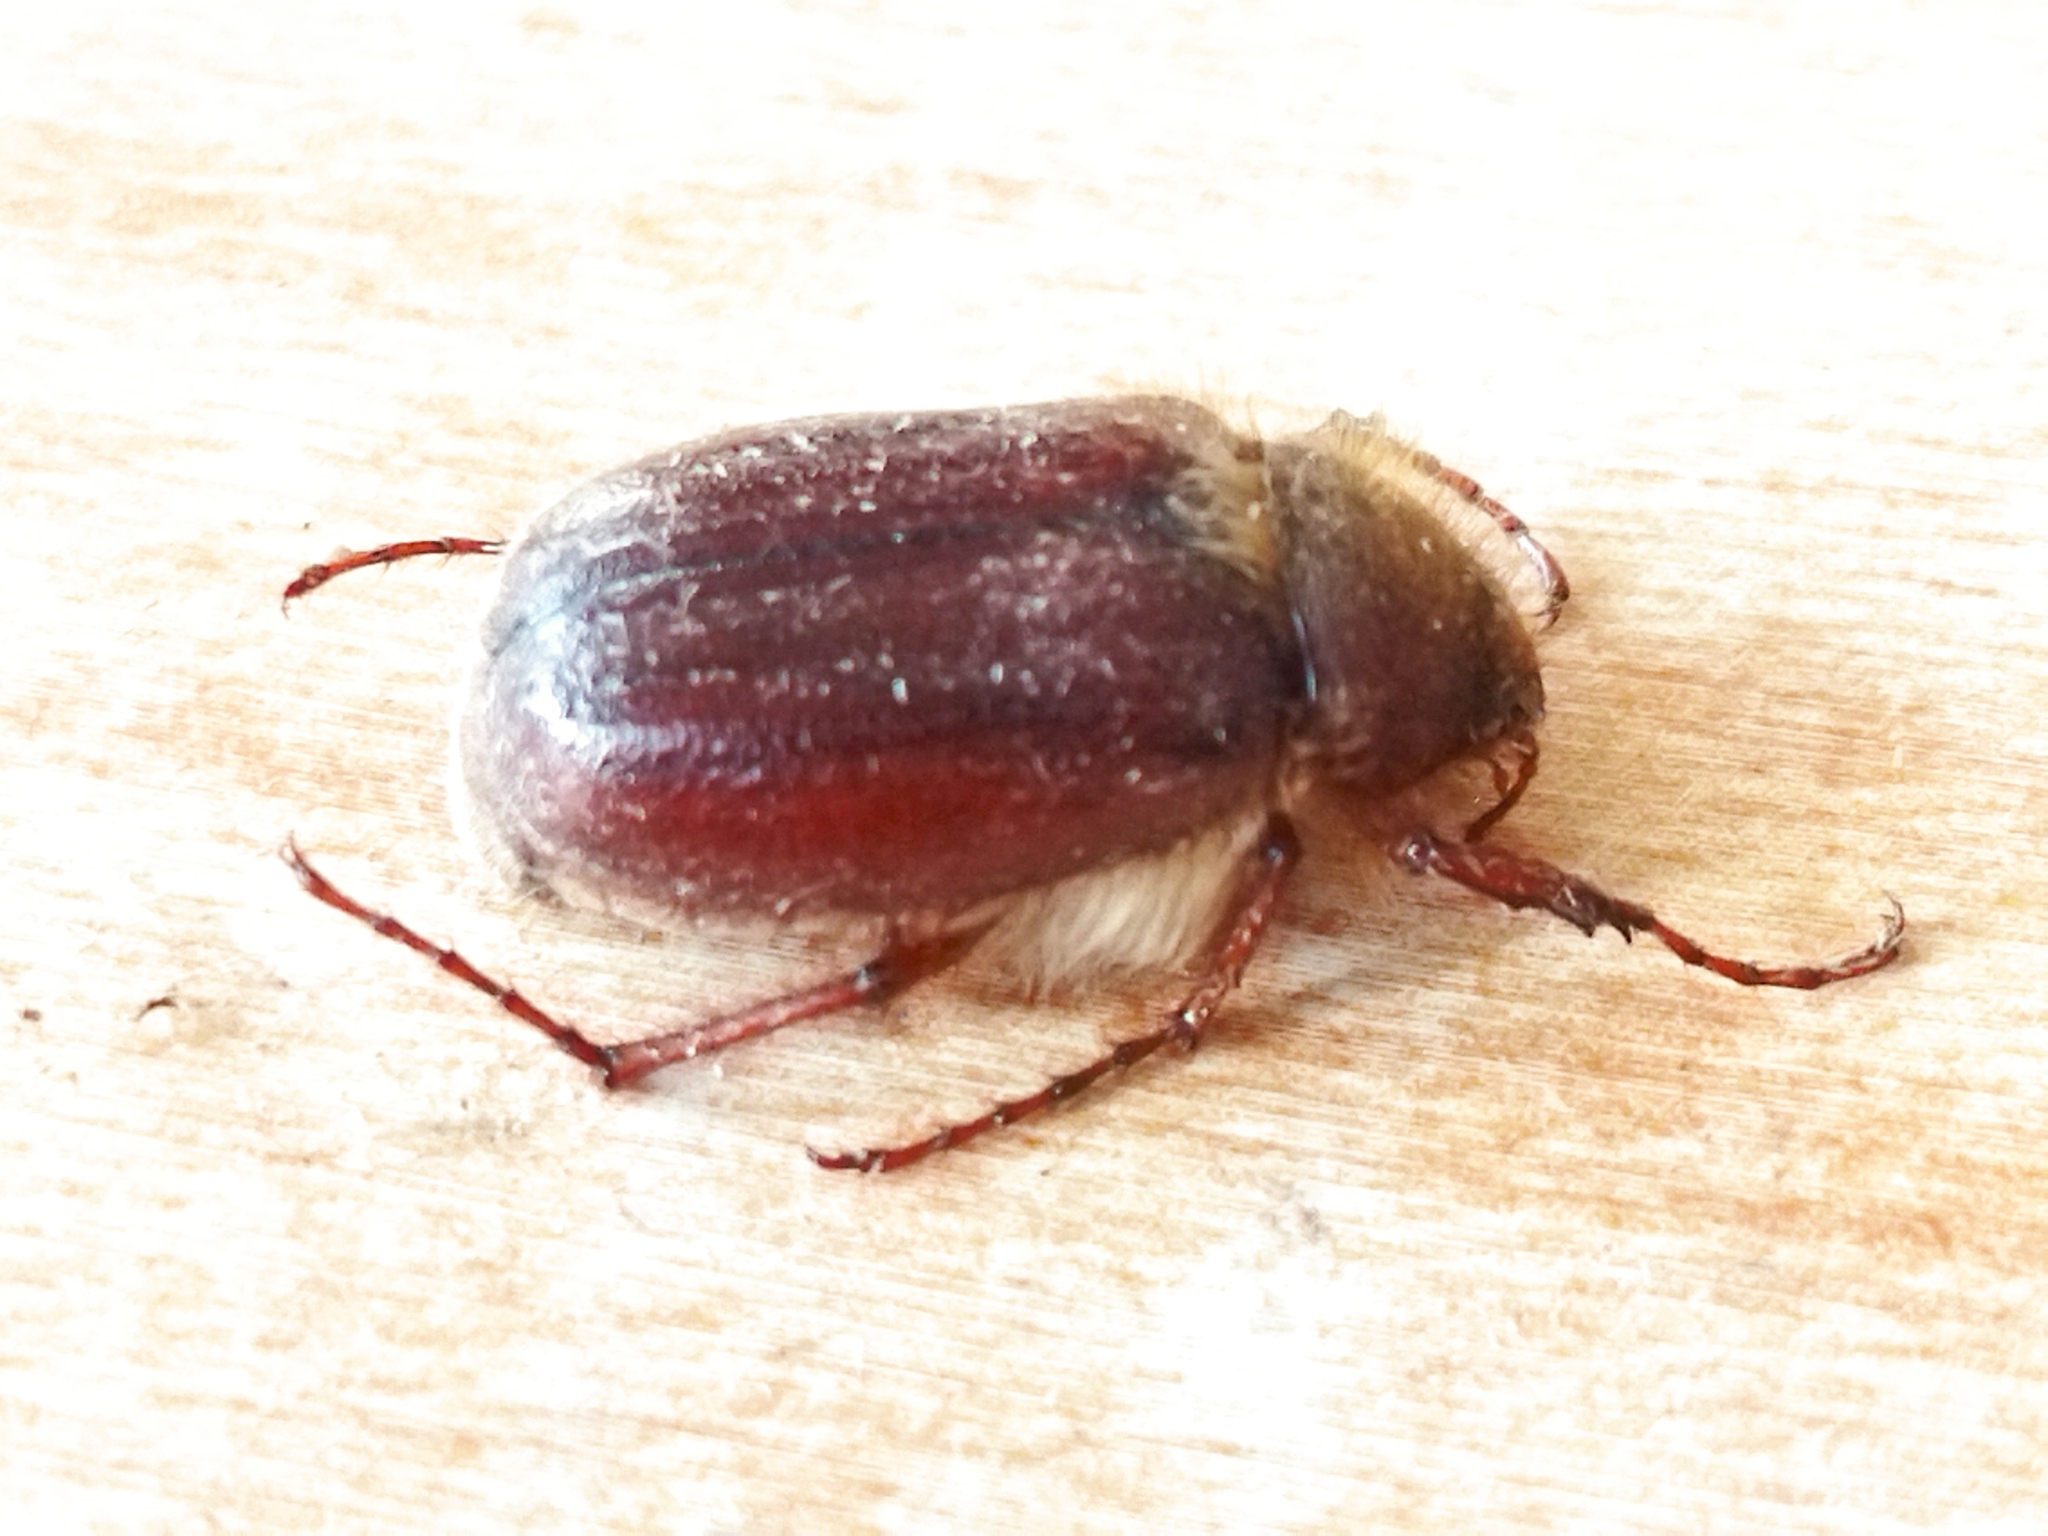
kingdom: Animalia
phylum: Arthropoda
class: Insecta
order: Coleoptera
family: Scarabaeidae
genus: Holochelus
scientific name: Holochelus aequinoctialis
